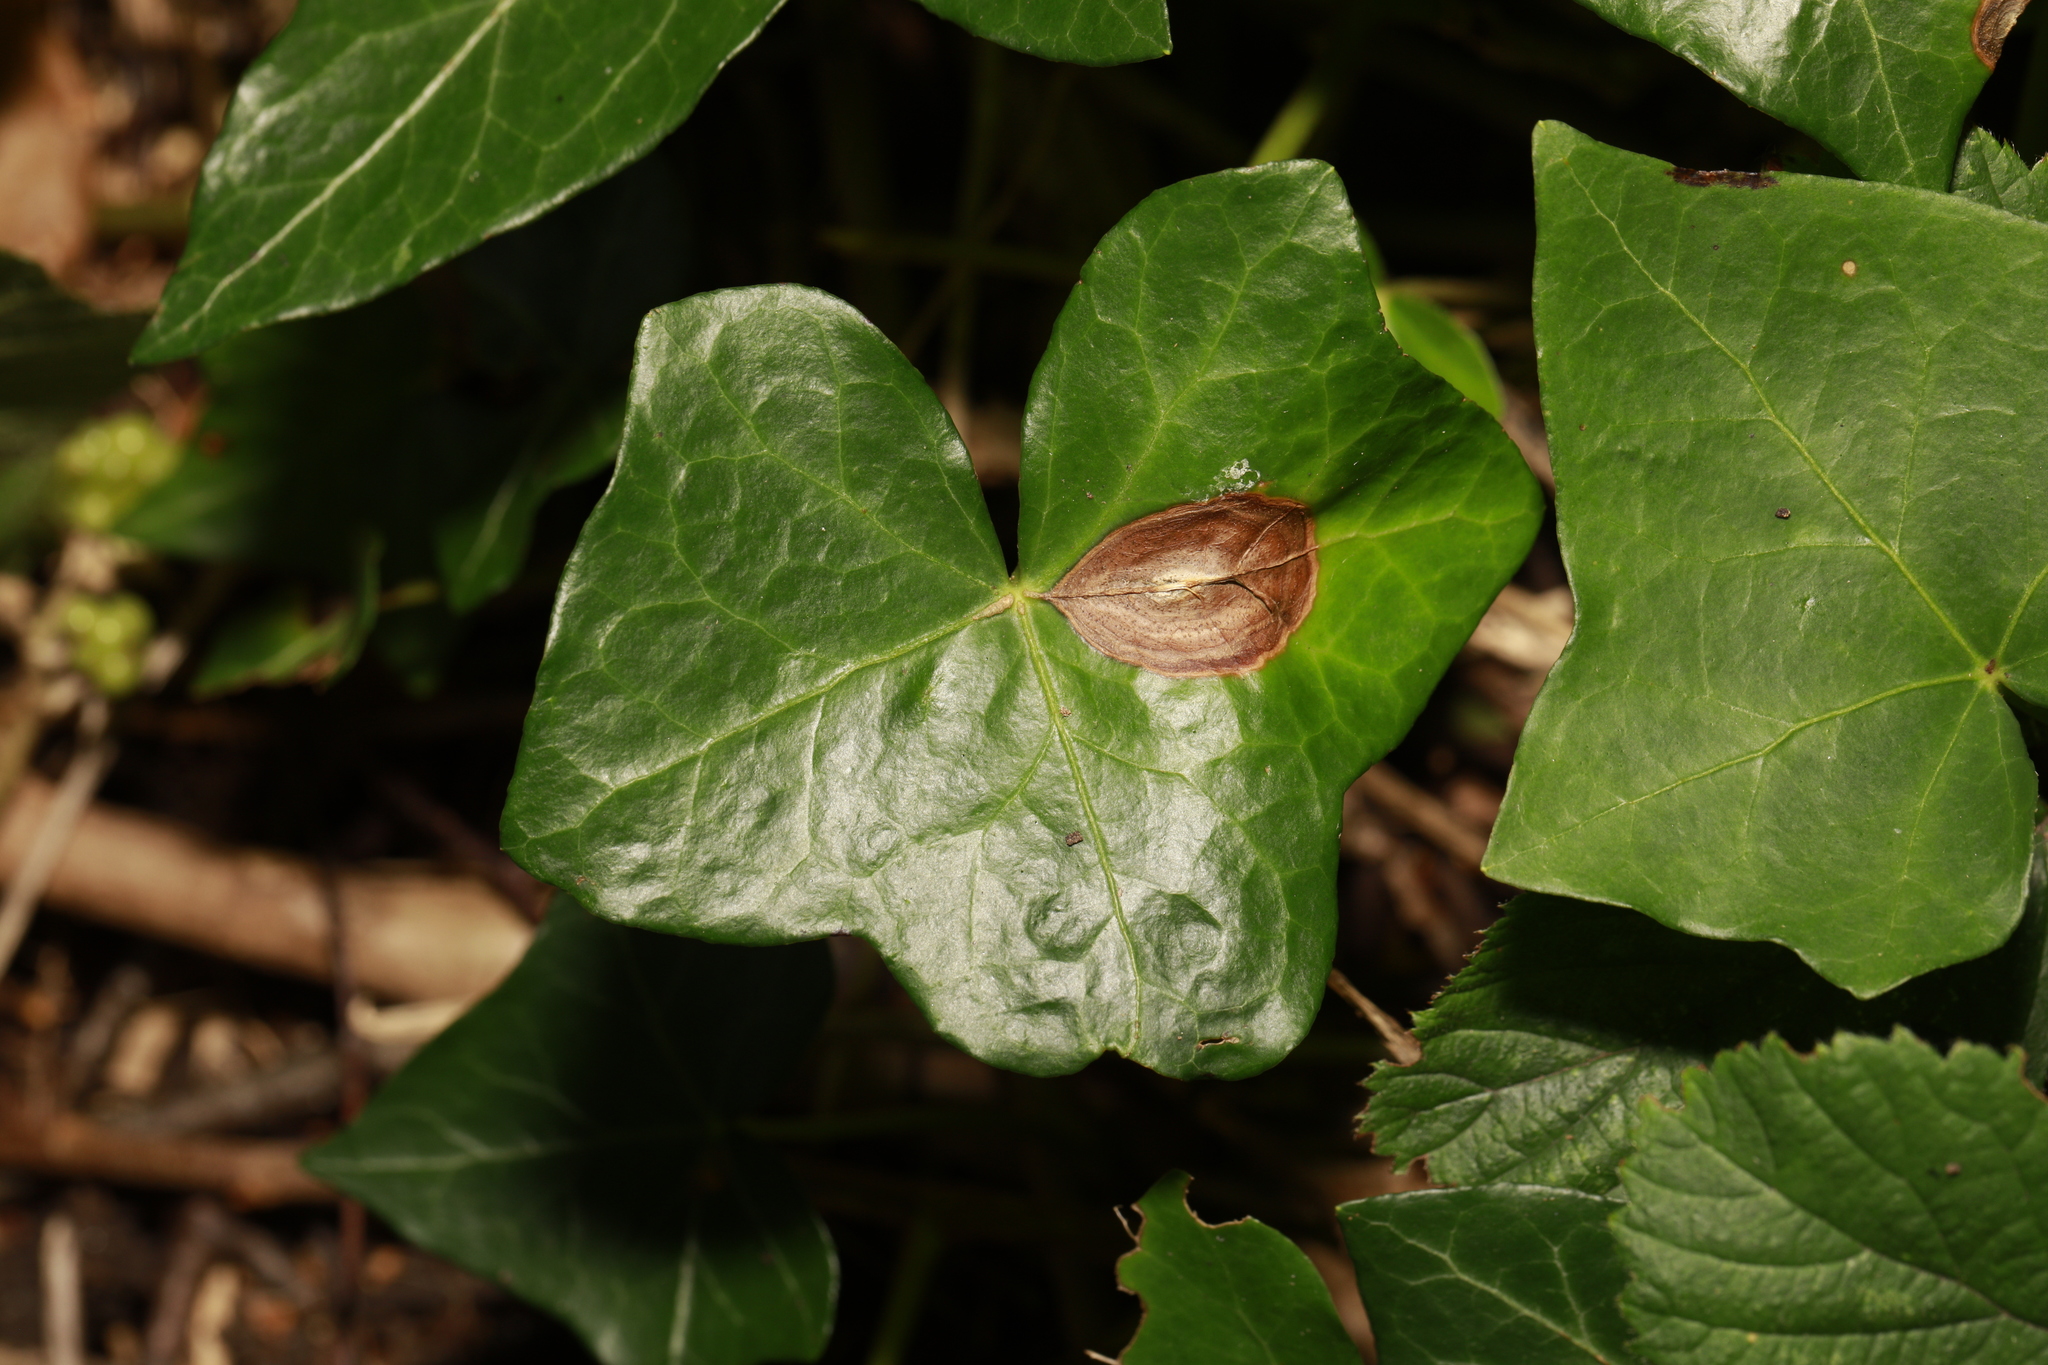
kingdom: Plantae
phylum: Tracheophyta
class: Magnoliopsida
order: Apiales
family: Araliaceae
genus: Hedera
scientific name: Hedera helix
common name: Ivy
